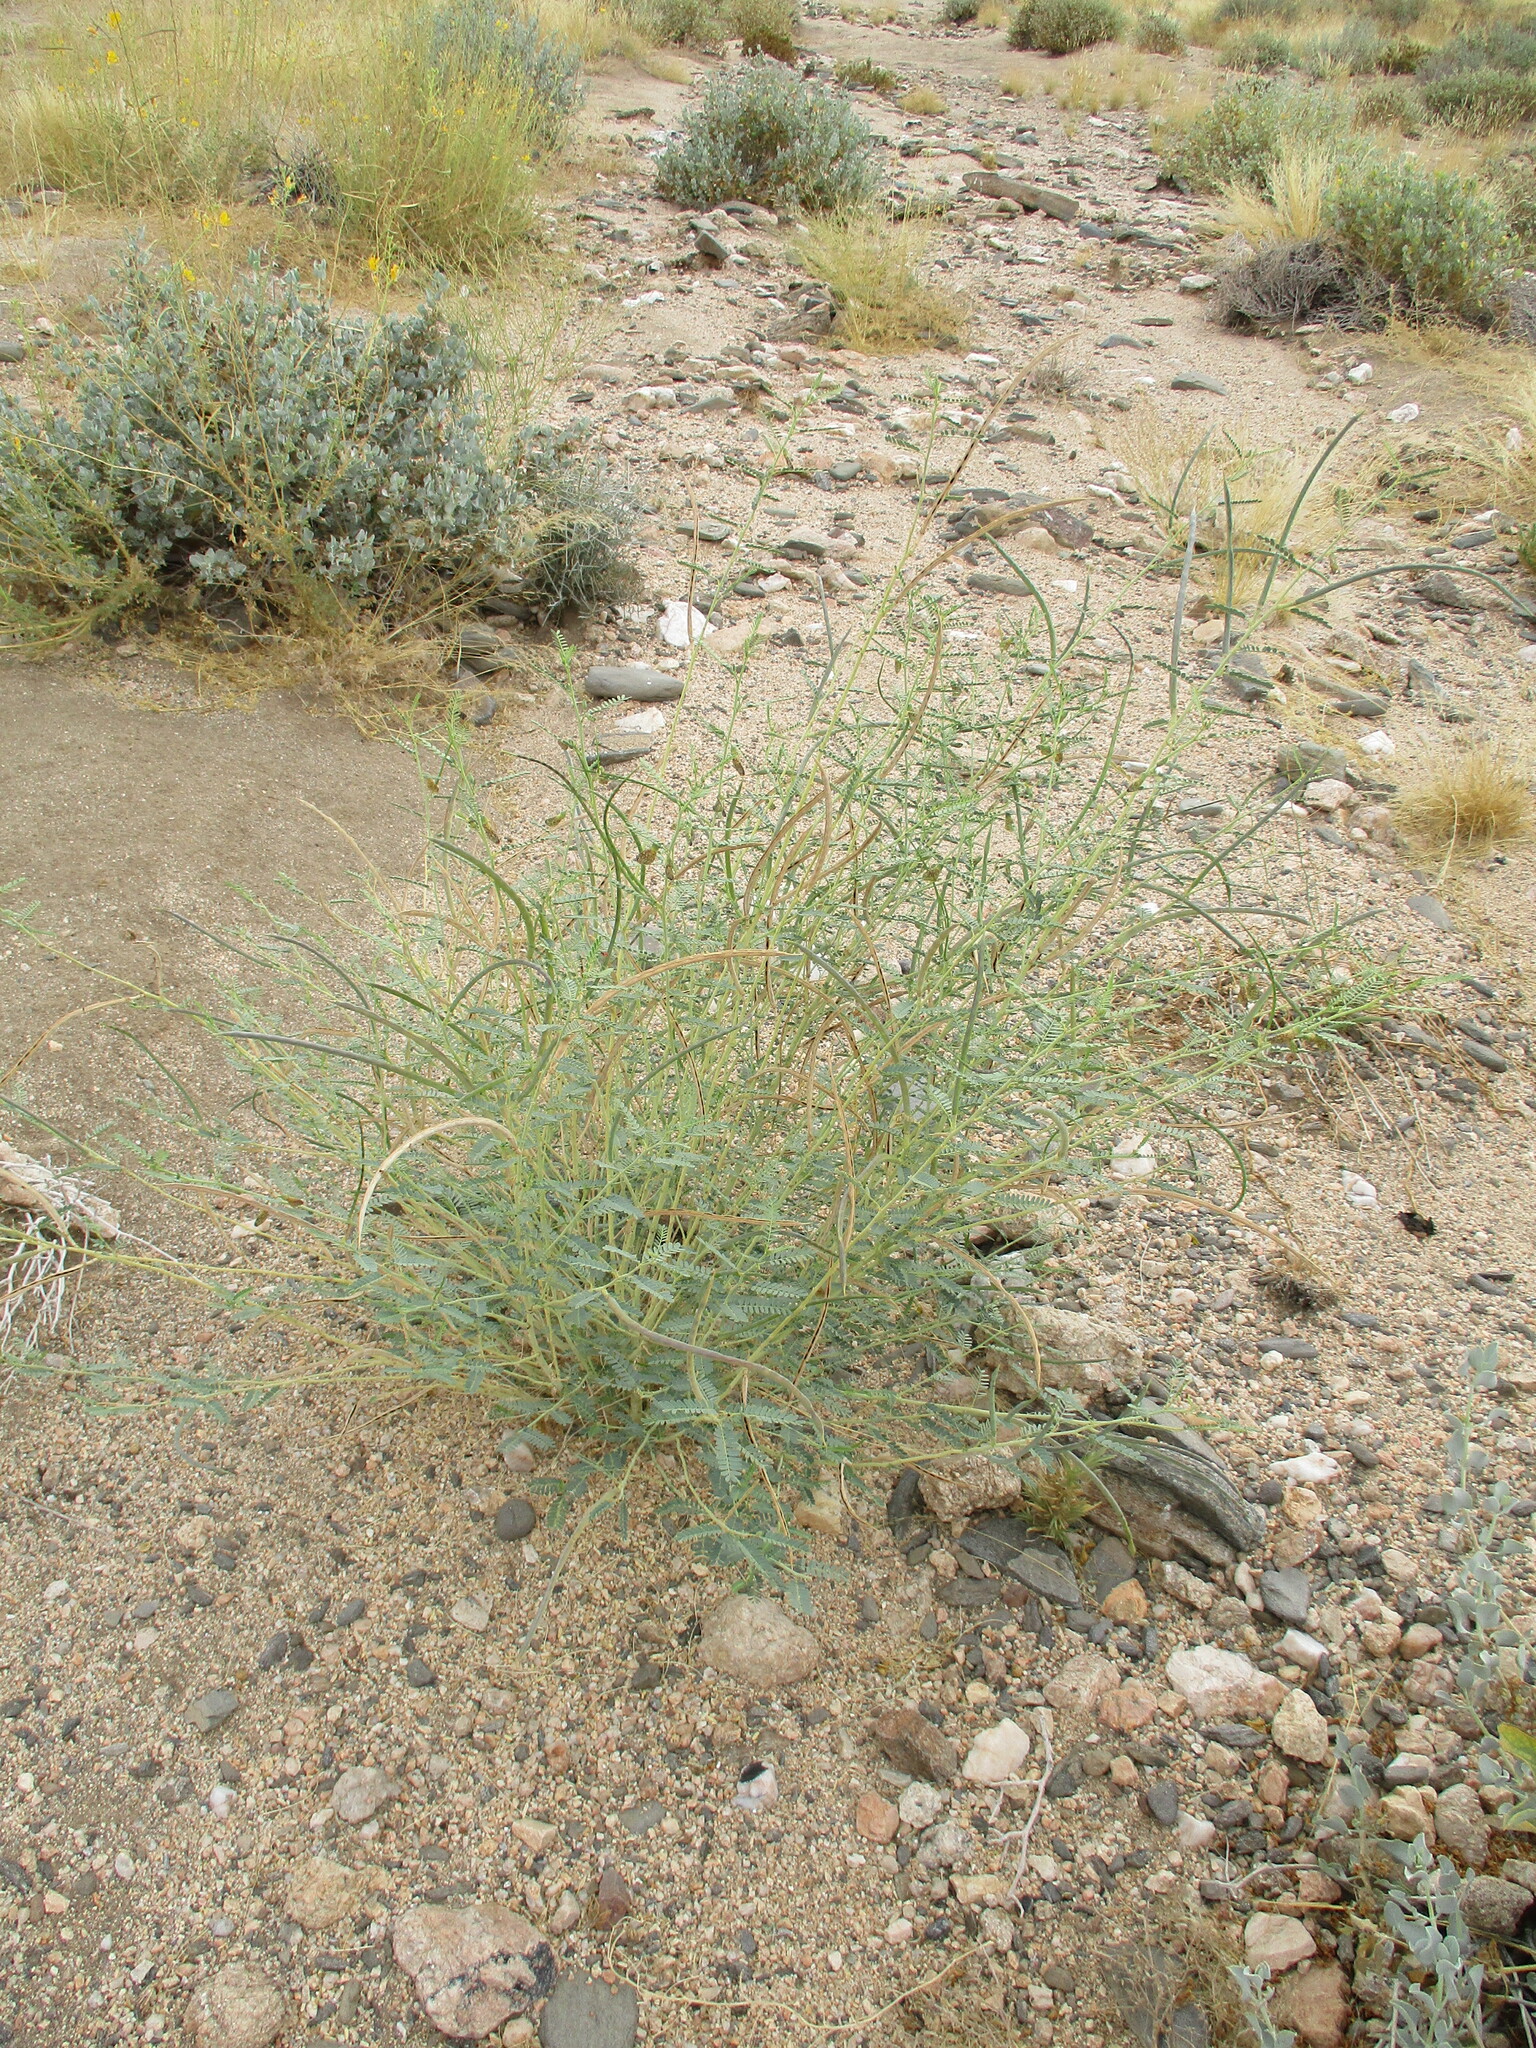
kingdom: Plantae
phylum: Tracheophyta
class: Magnoliopsida
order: Fabales
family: Fabaceae
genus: Sesbania
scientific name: Sesbania pachycarpa
